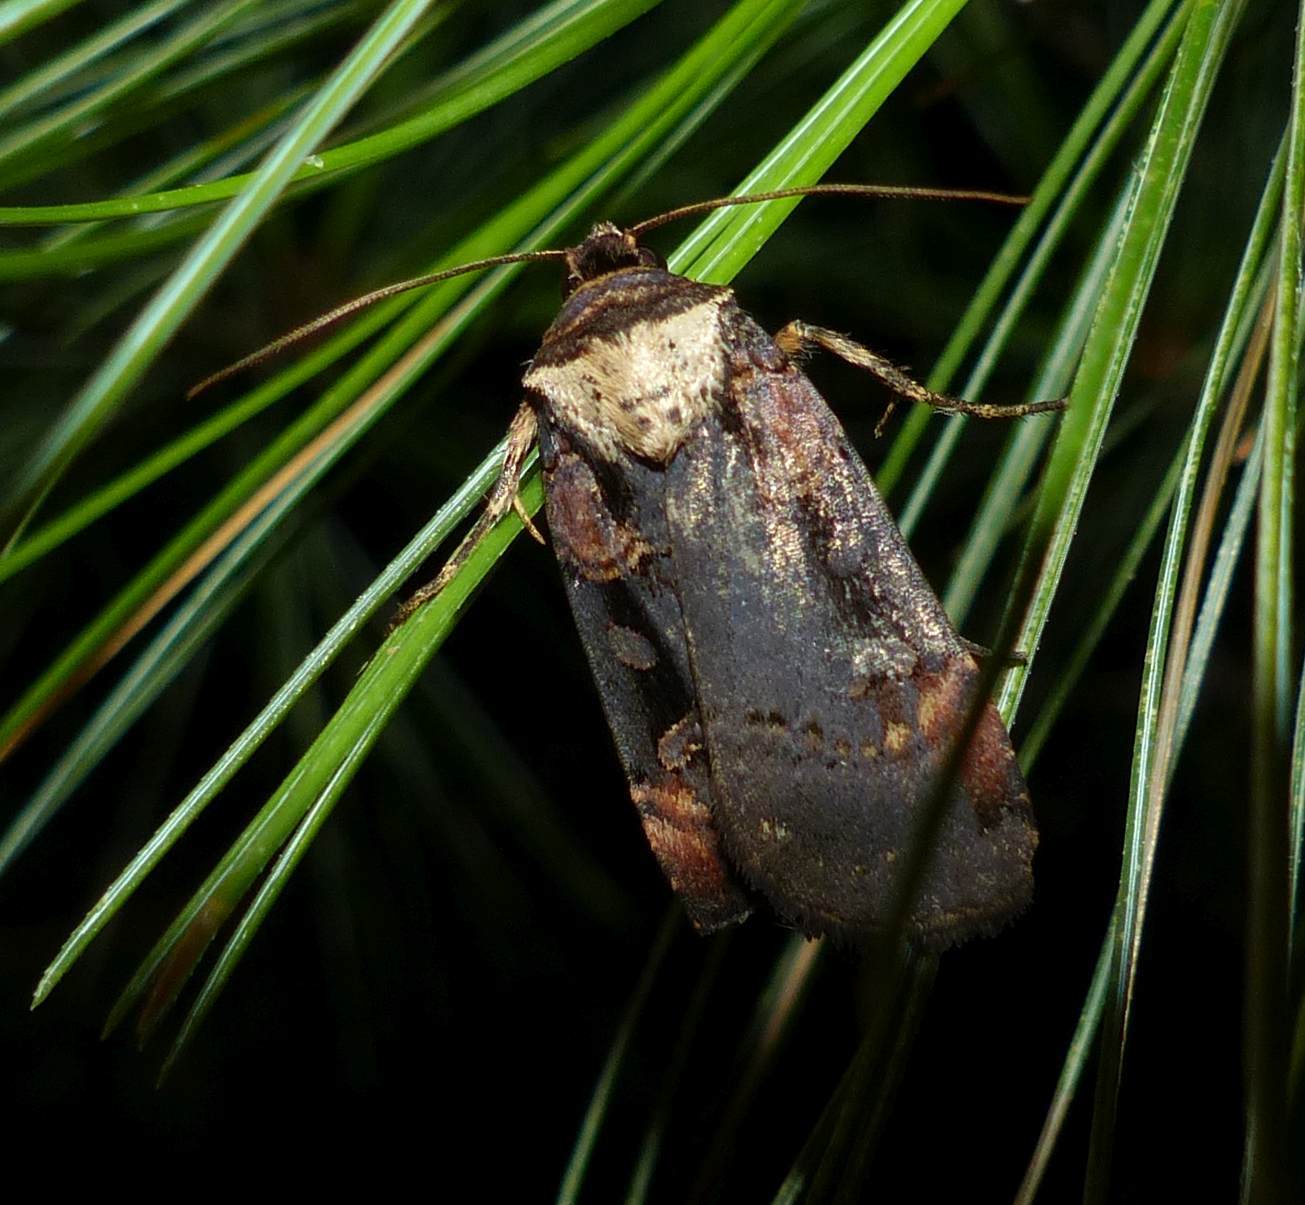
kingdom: Animalia
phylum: Arthropoda
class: Insecta
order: Lepidoptera
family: Noctuidae
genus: Pseudohermonassa
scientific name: Pseudohermonassa bicarnea
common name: Pink spotted dart
